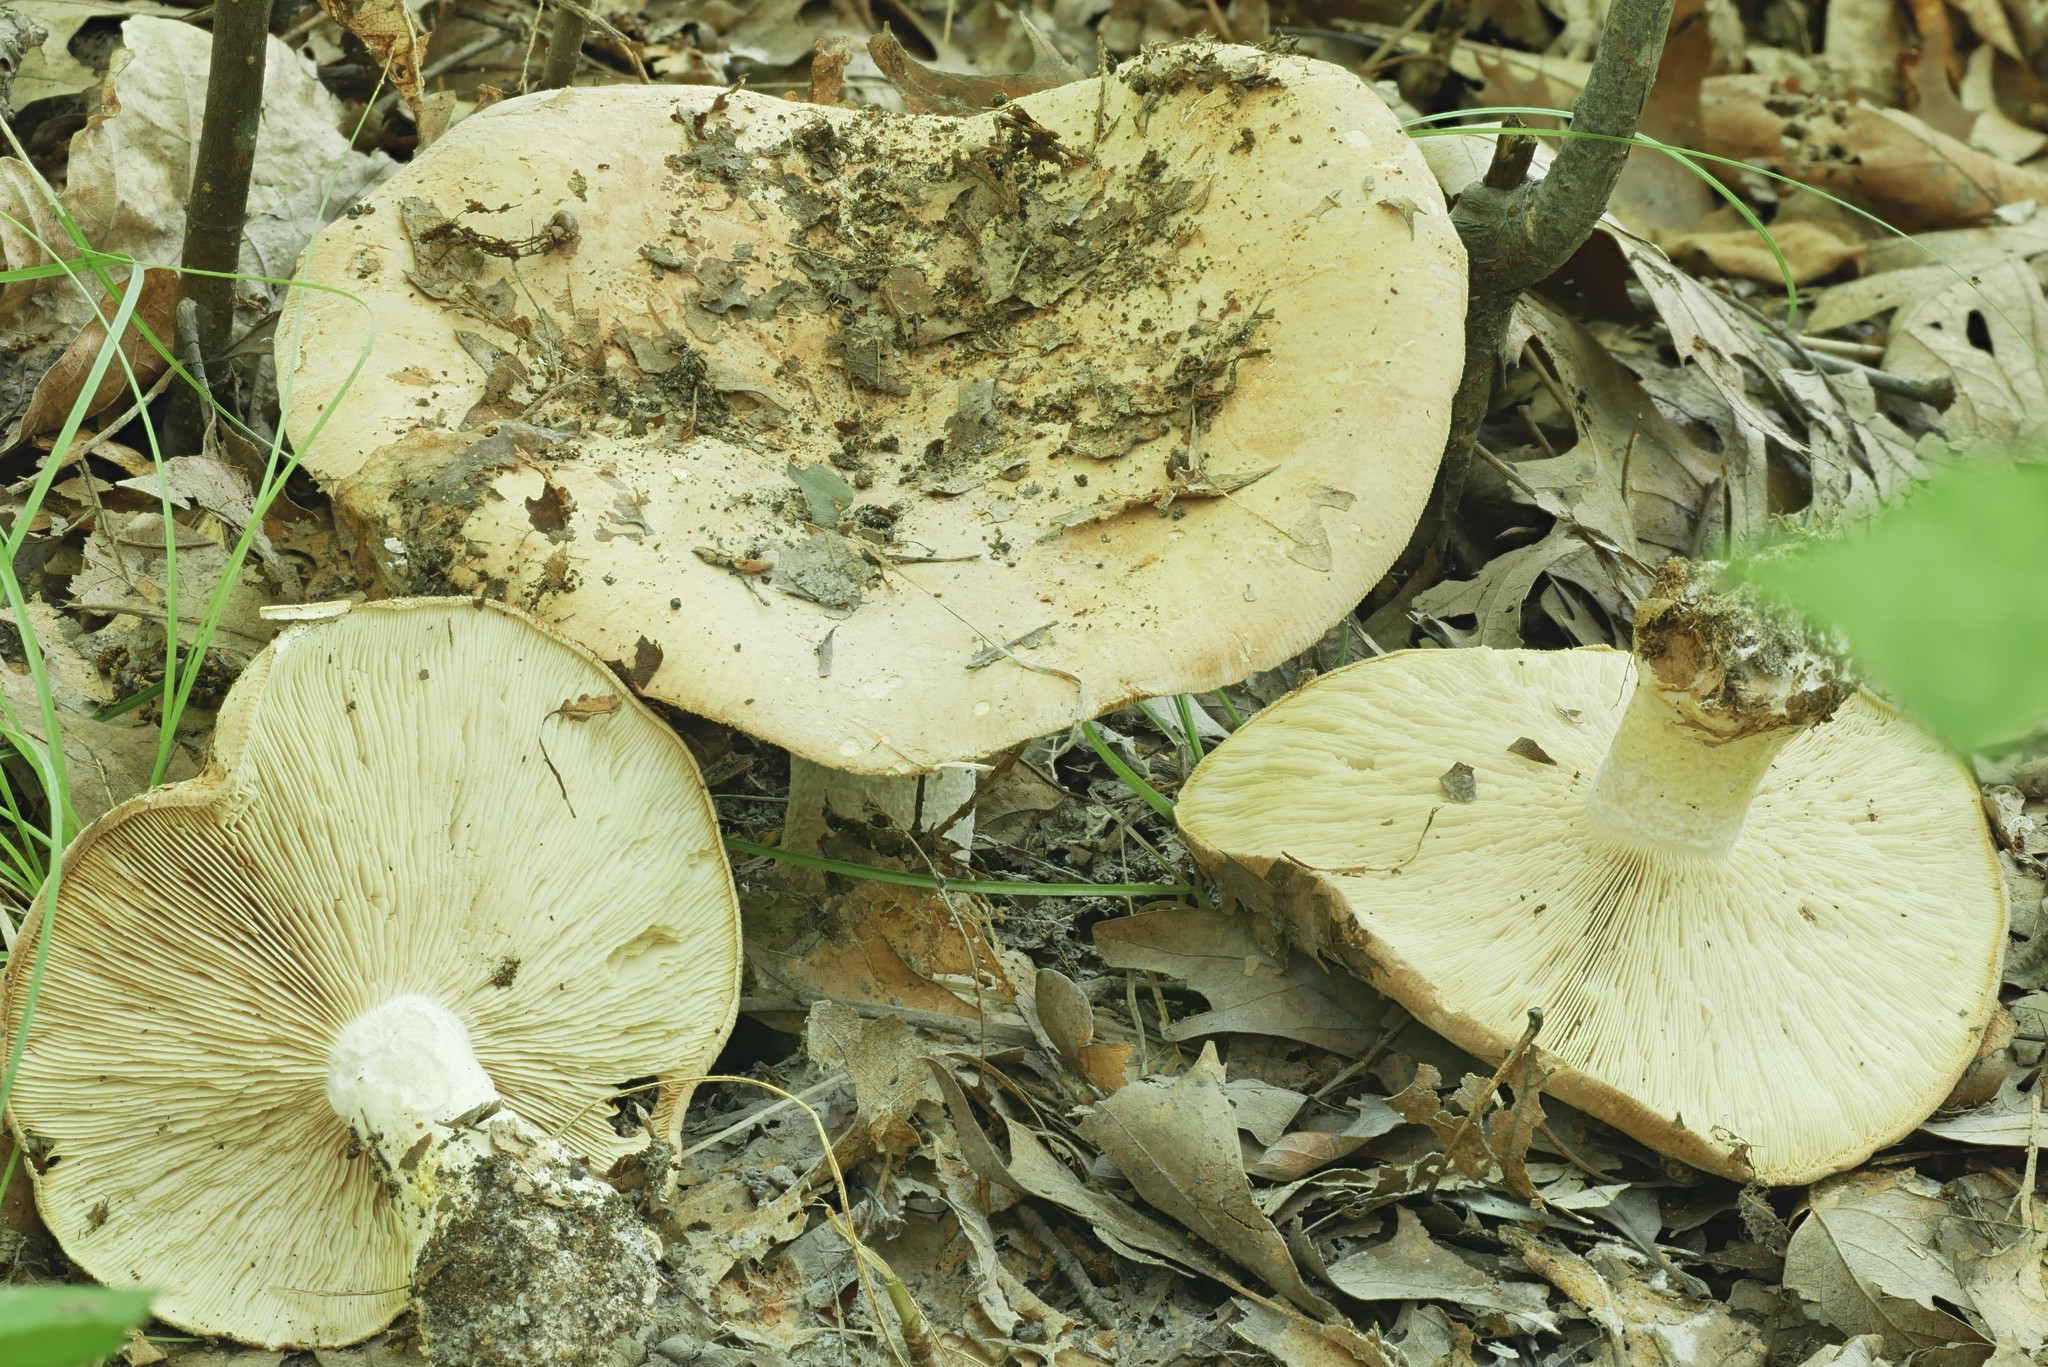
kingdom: Fungi
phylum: Basidiomycota
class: Agaricomycetes
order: Agaricales
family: Tricholomataceae
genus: Leucopaxillus
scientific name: Leucopaxillus tricolor
